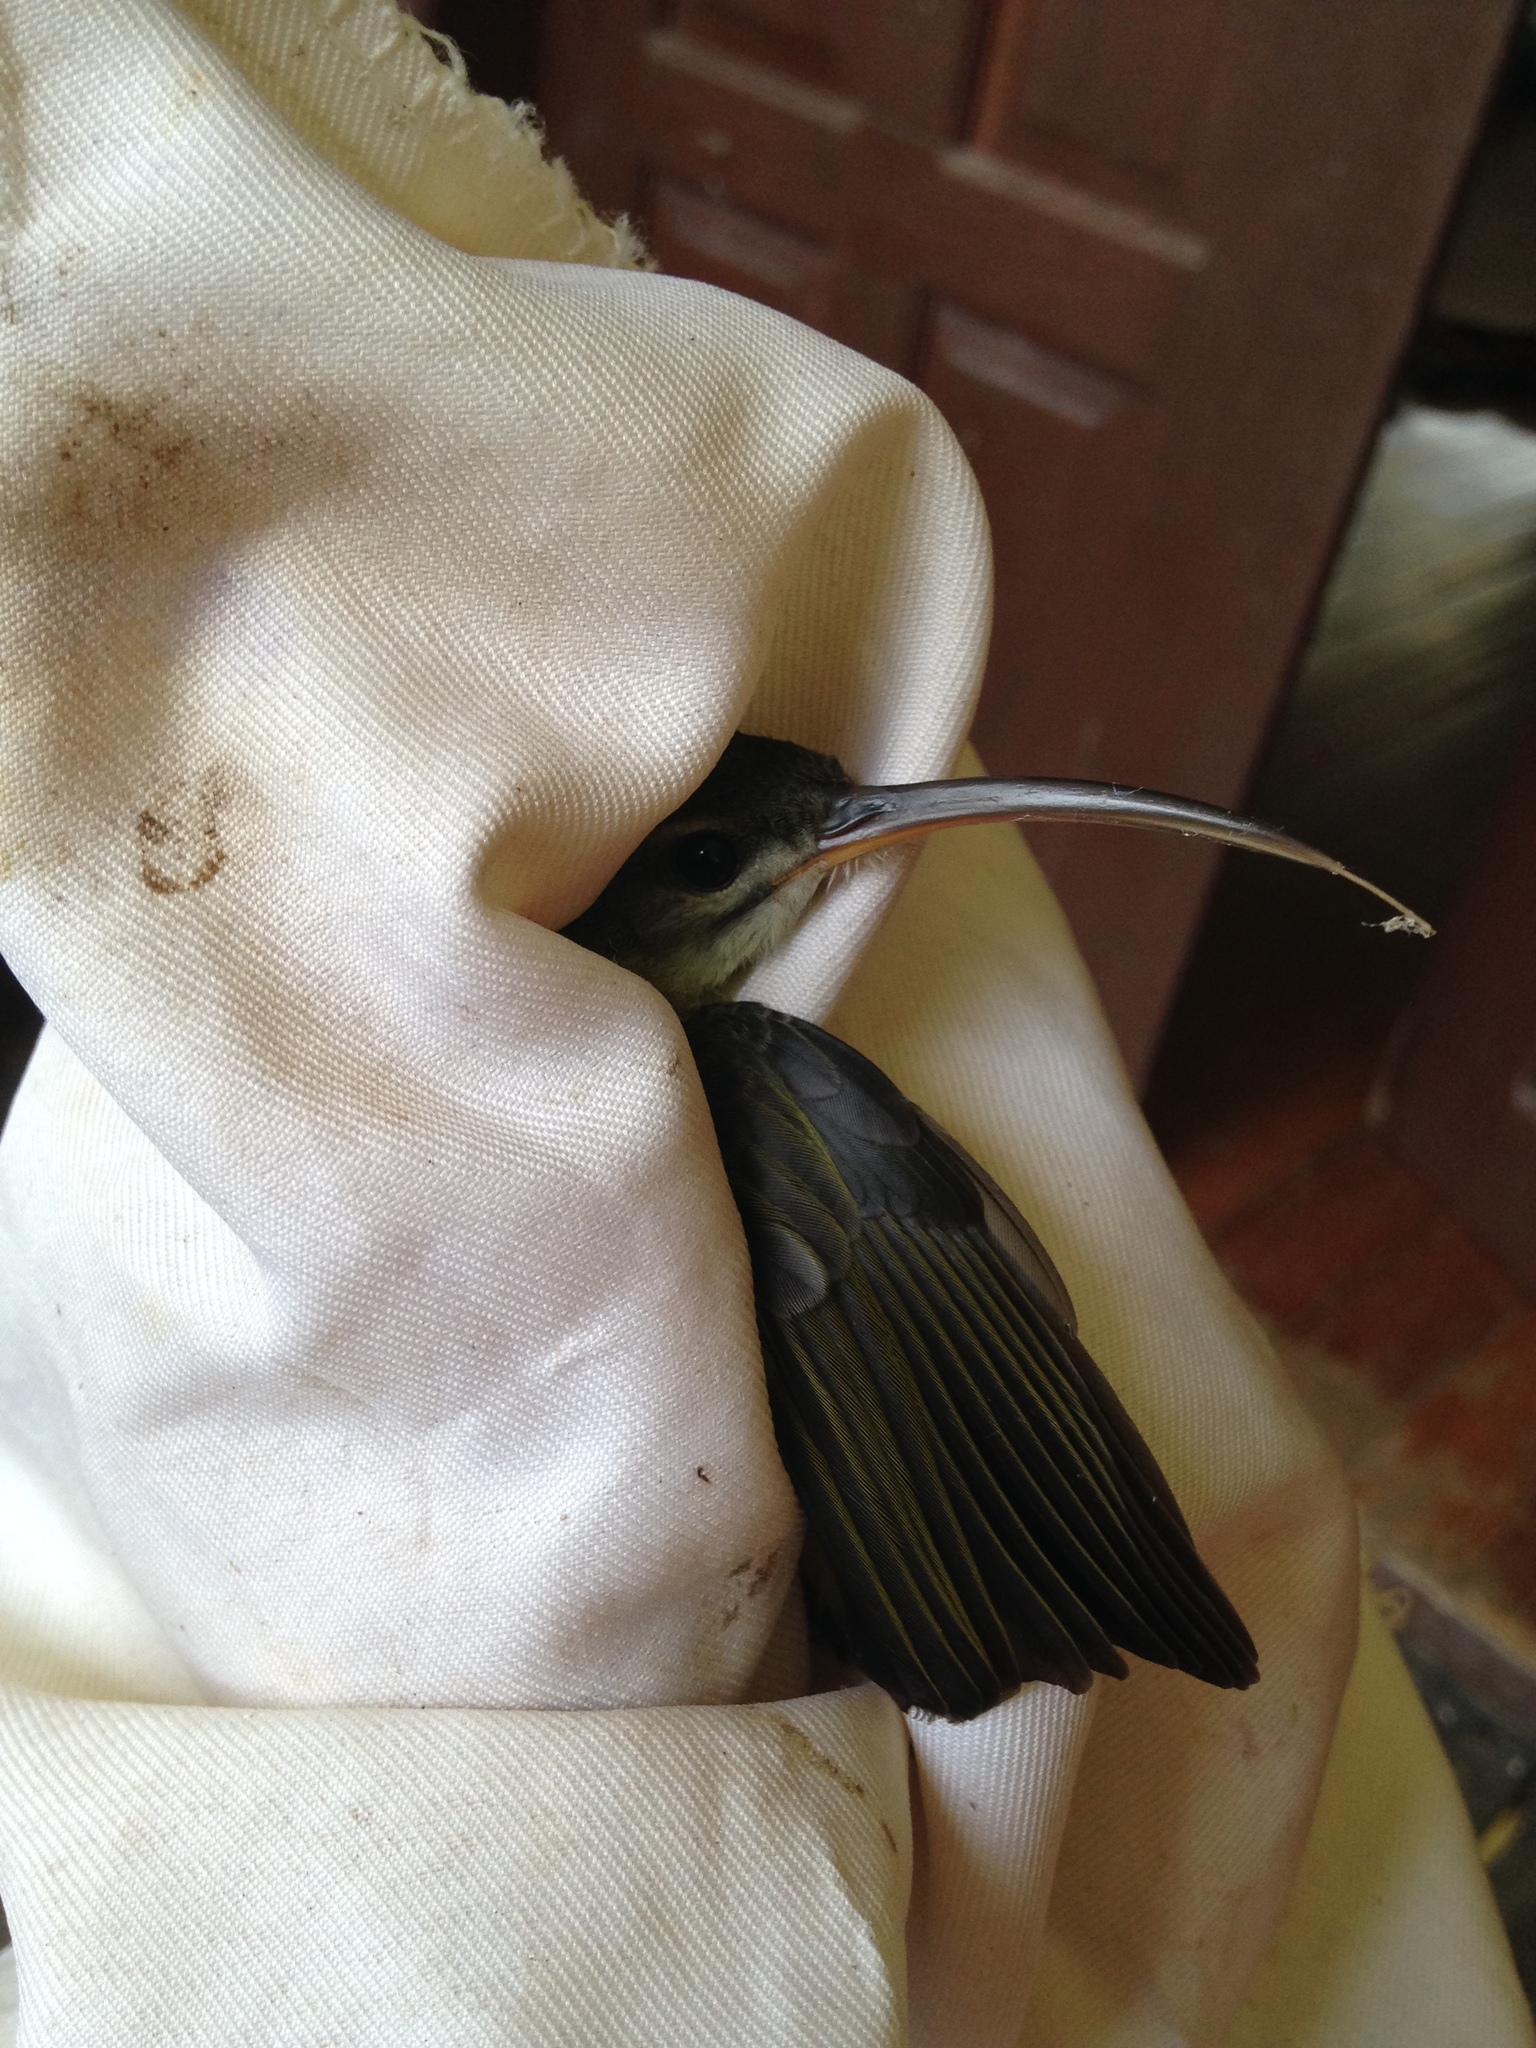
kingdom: Animalia
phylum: Chordata
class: Aves
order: Passeriformes
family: Nectariniidae
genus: Arachnothera
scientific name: Arachnothera longirostra
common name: Little spiderhunter
